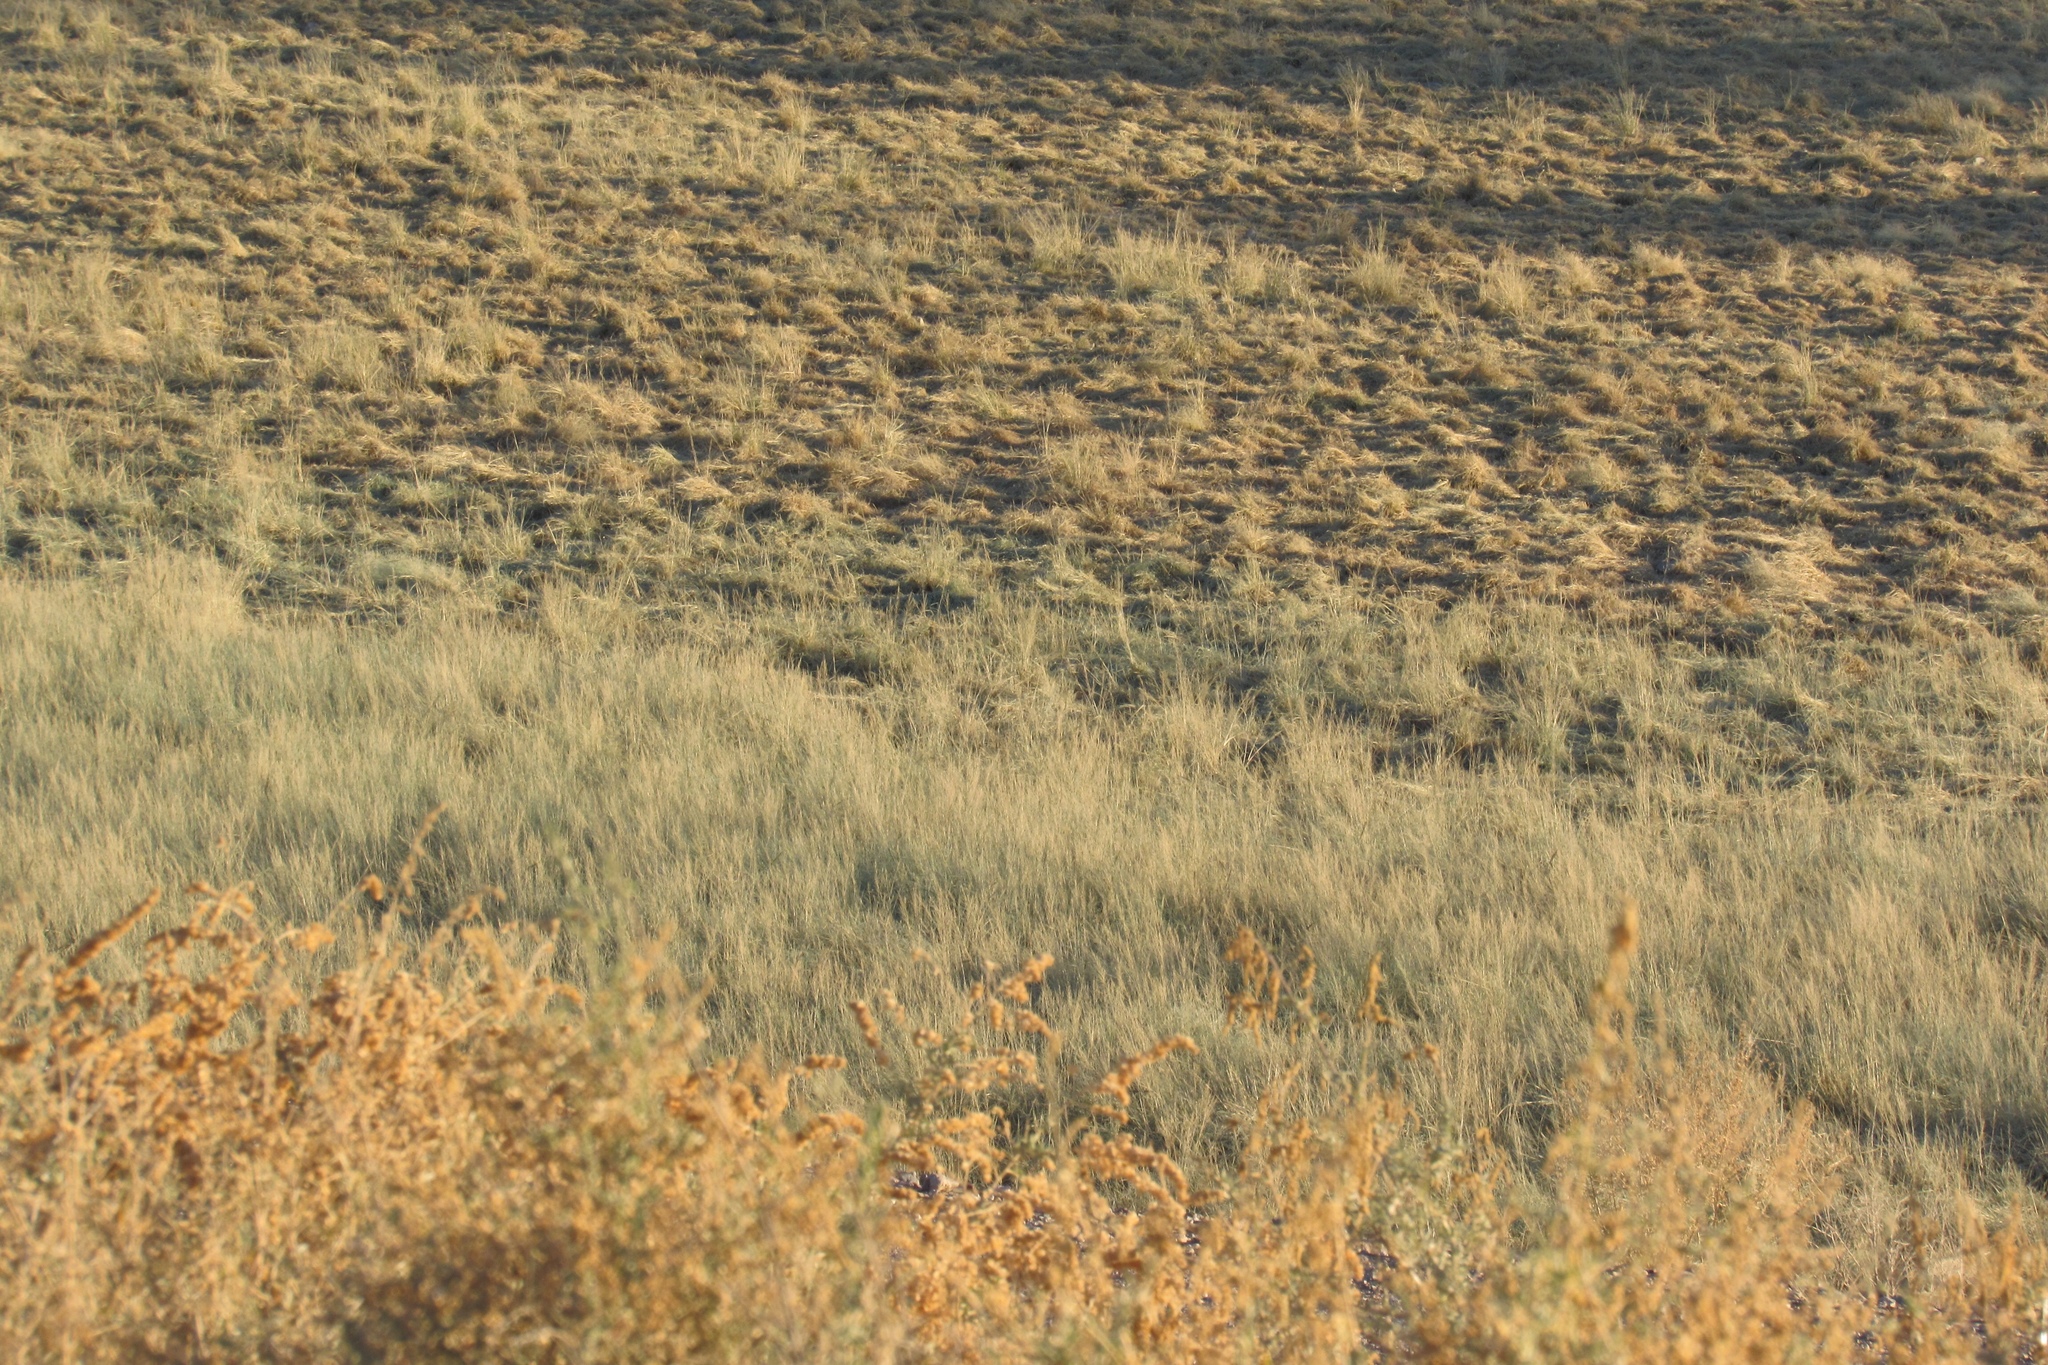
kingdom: Animalia
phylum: Chordata
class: Aves
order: Columbiformes
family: Columbidae
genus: Zenaida
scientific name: Zenaida macroura
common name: Mourning dove
